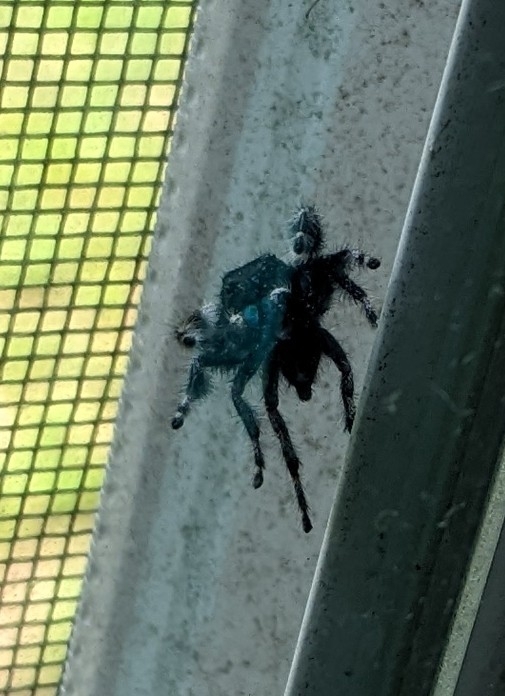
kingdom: Animalia
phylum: Arthropoda
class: Arachnida
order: Araneae
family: Salticidae
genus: Phidippus
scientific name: Phidippus audax
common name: Bold jumper
